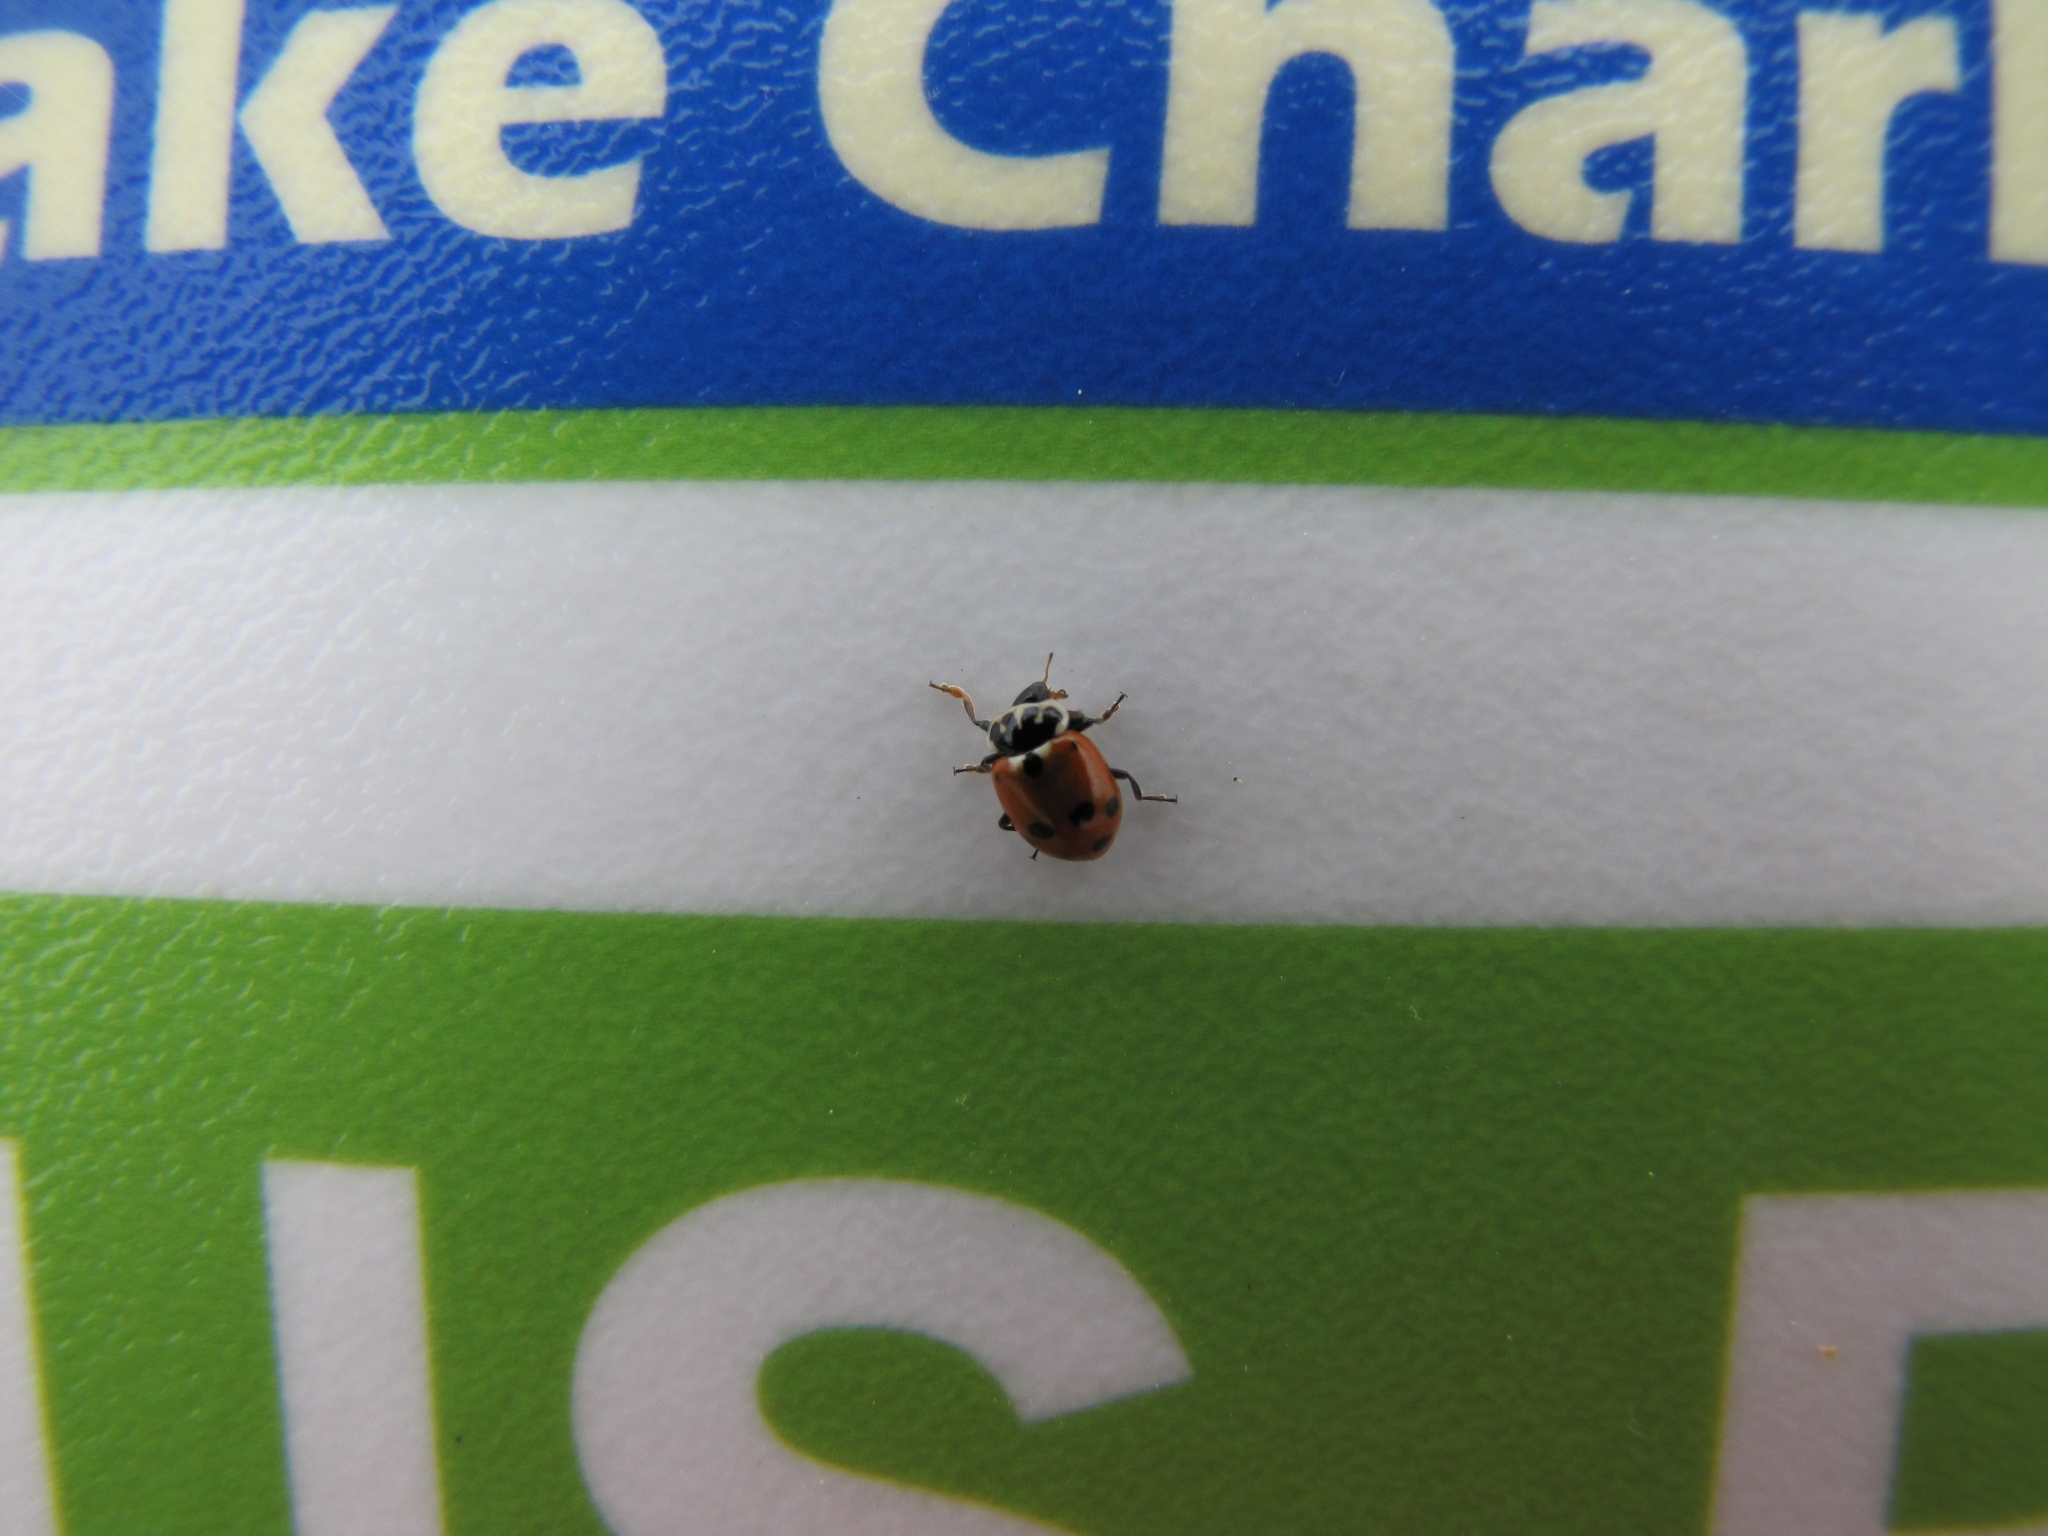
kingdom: Animalia
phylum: Arthropoda
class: Insecta
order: Coleoptera
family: Coccinellidae
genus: Hippodamia
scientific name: Hippodamia variegata
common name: Ladybird beetle
